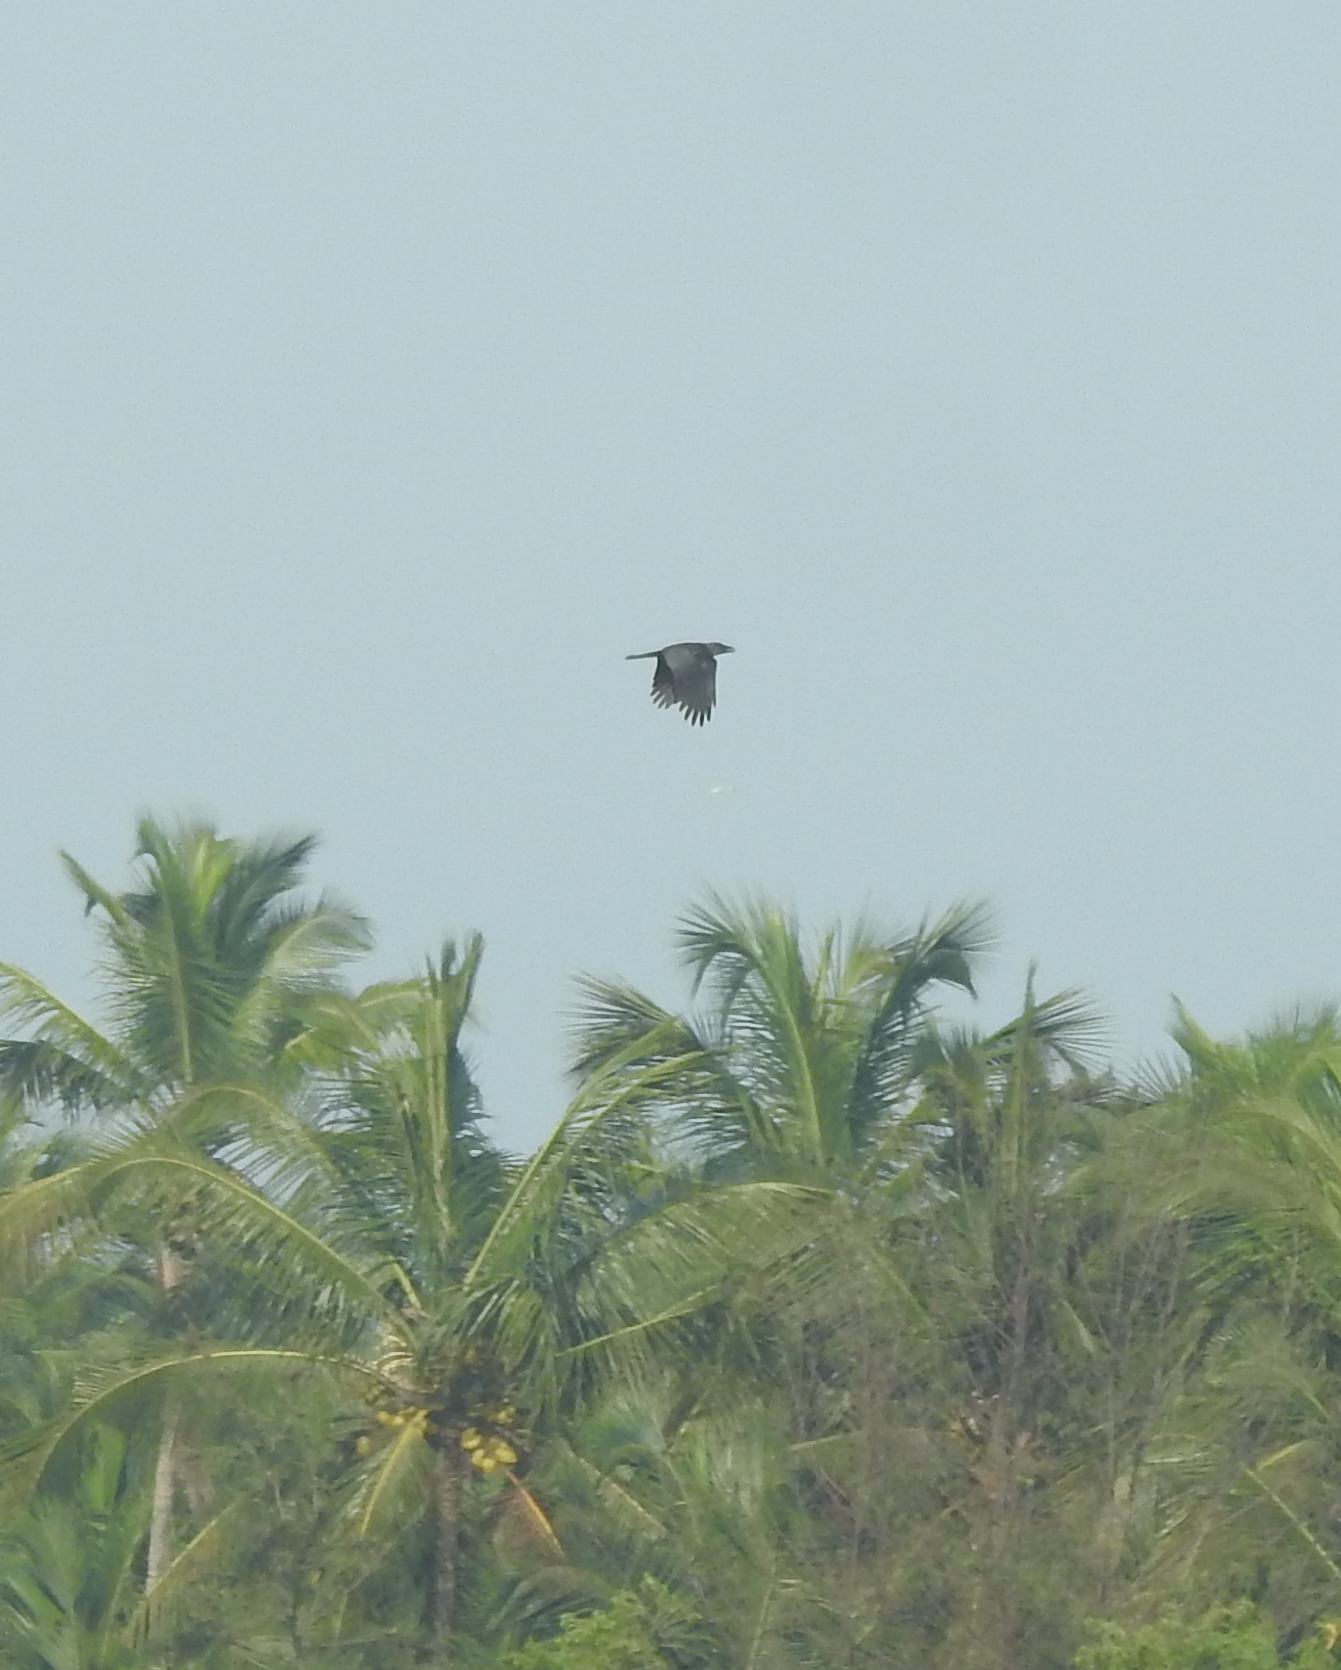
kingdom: Animalia
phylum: Chordata
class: Aves
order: Passeriformes
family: Corvidae
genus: Corvus
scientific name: Corvus splendens
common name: House crow
